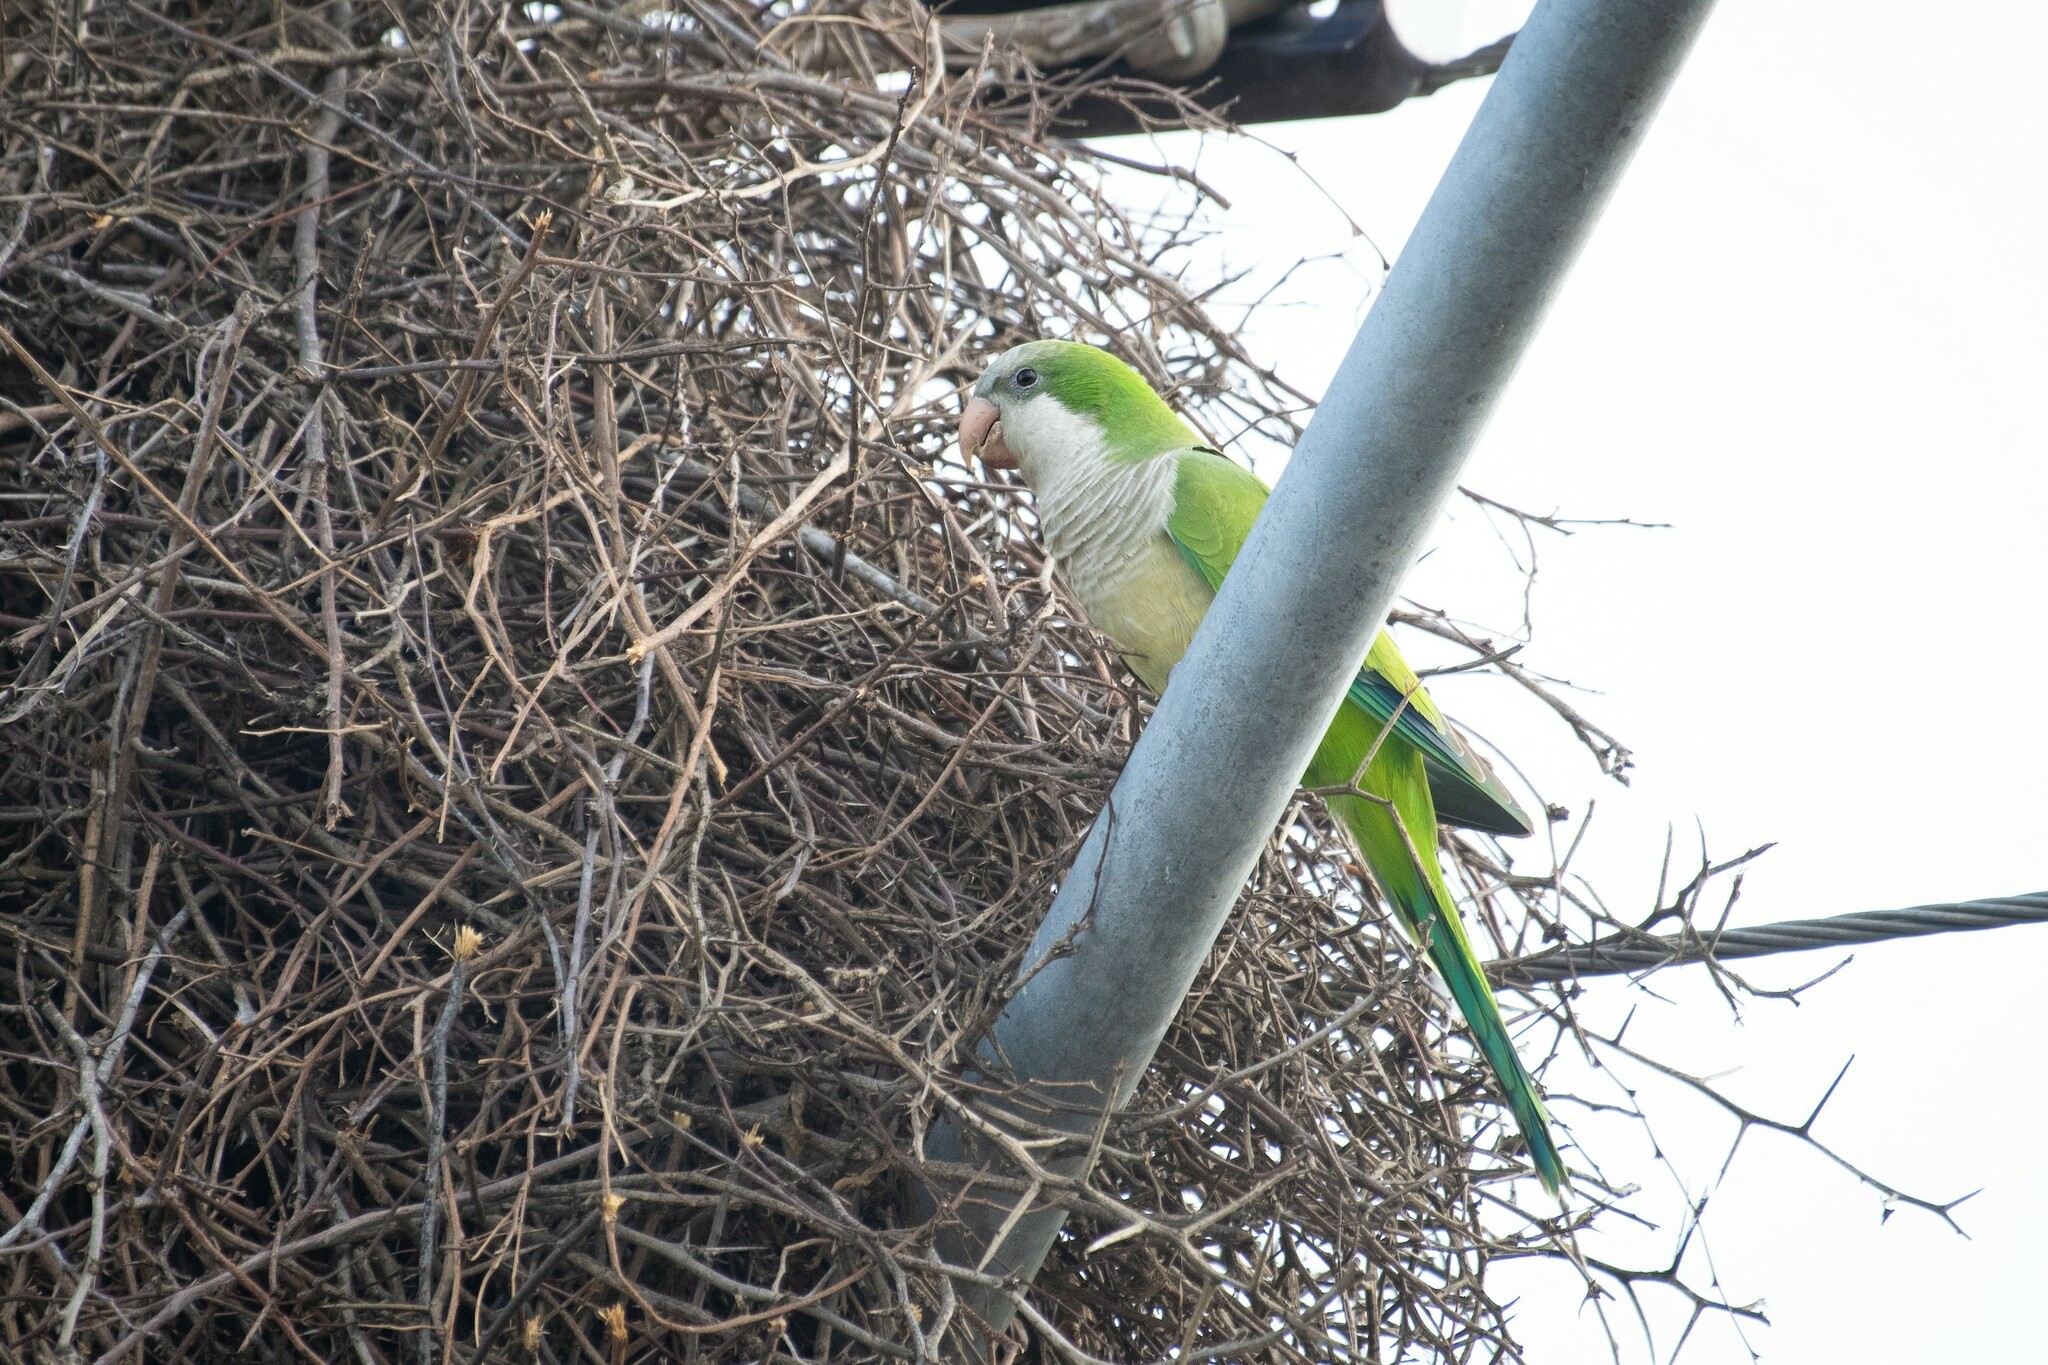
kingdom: Animalia
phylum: Chordata
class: Aves
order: Psittaciformes
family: Psittacidae
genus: Myiopsitta
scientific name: Myiopsitta monachus
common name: Monk parakeet
